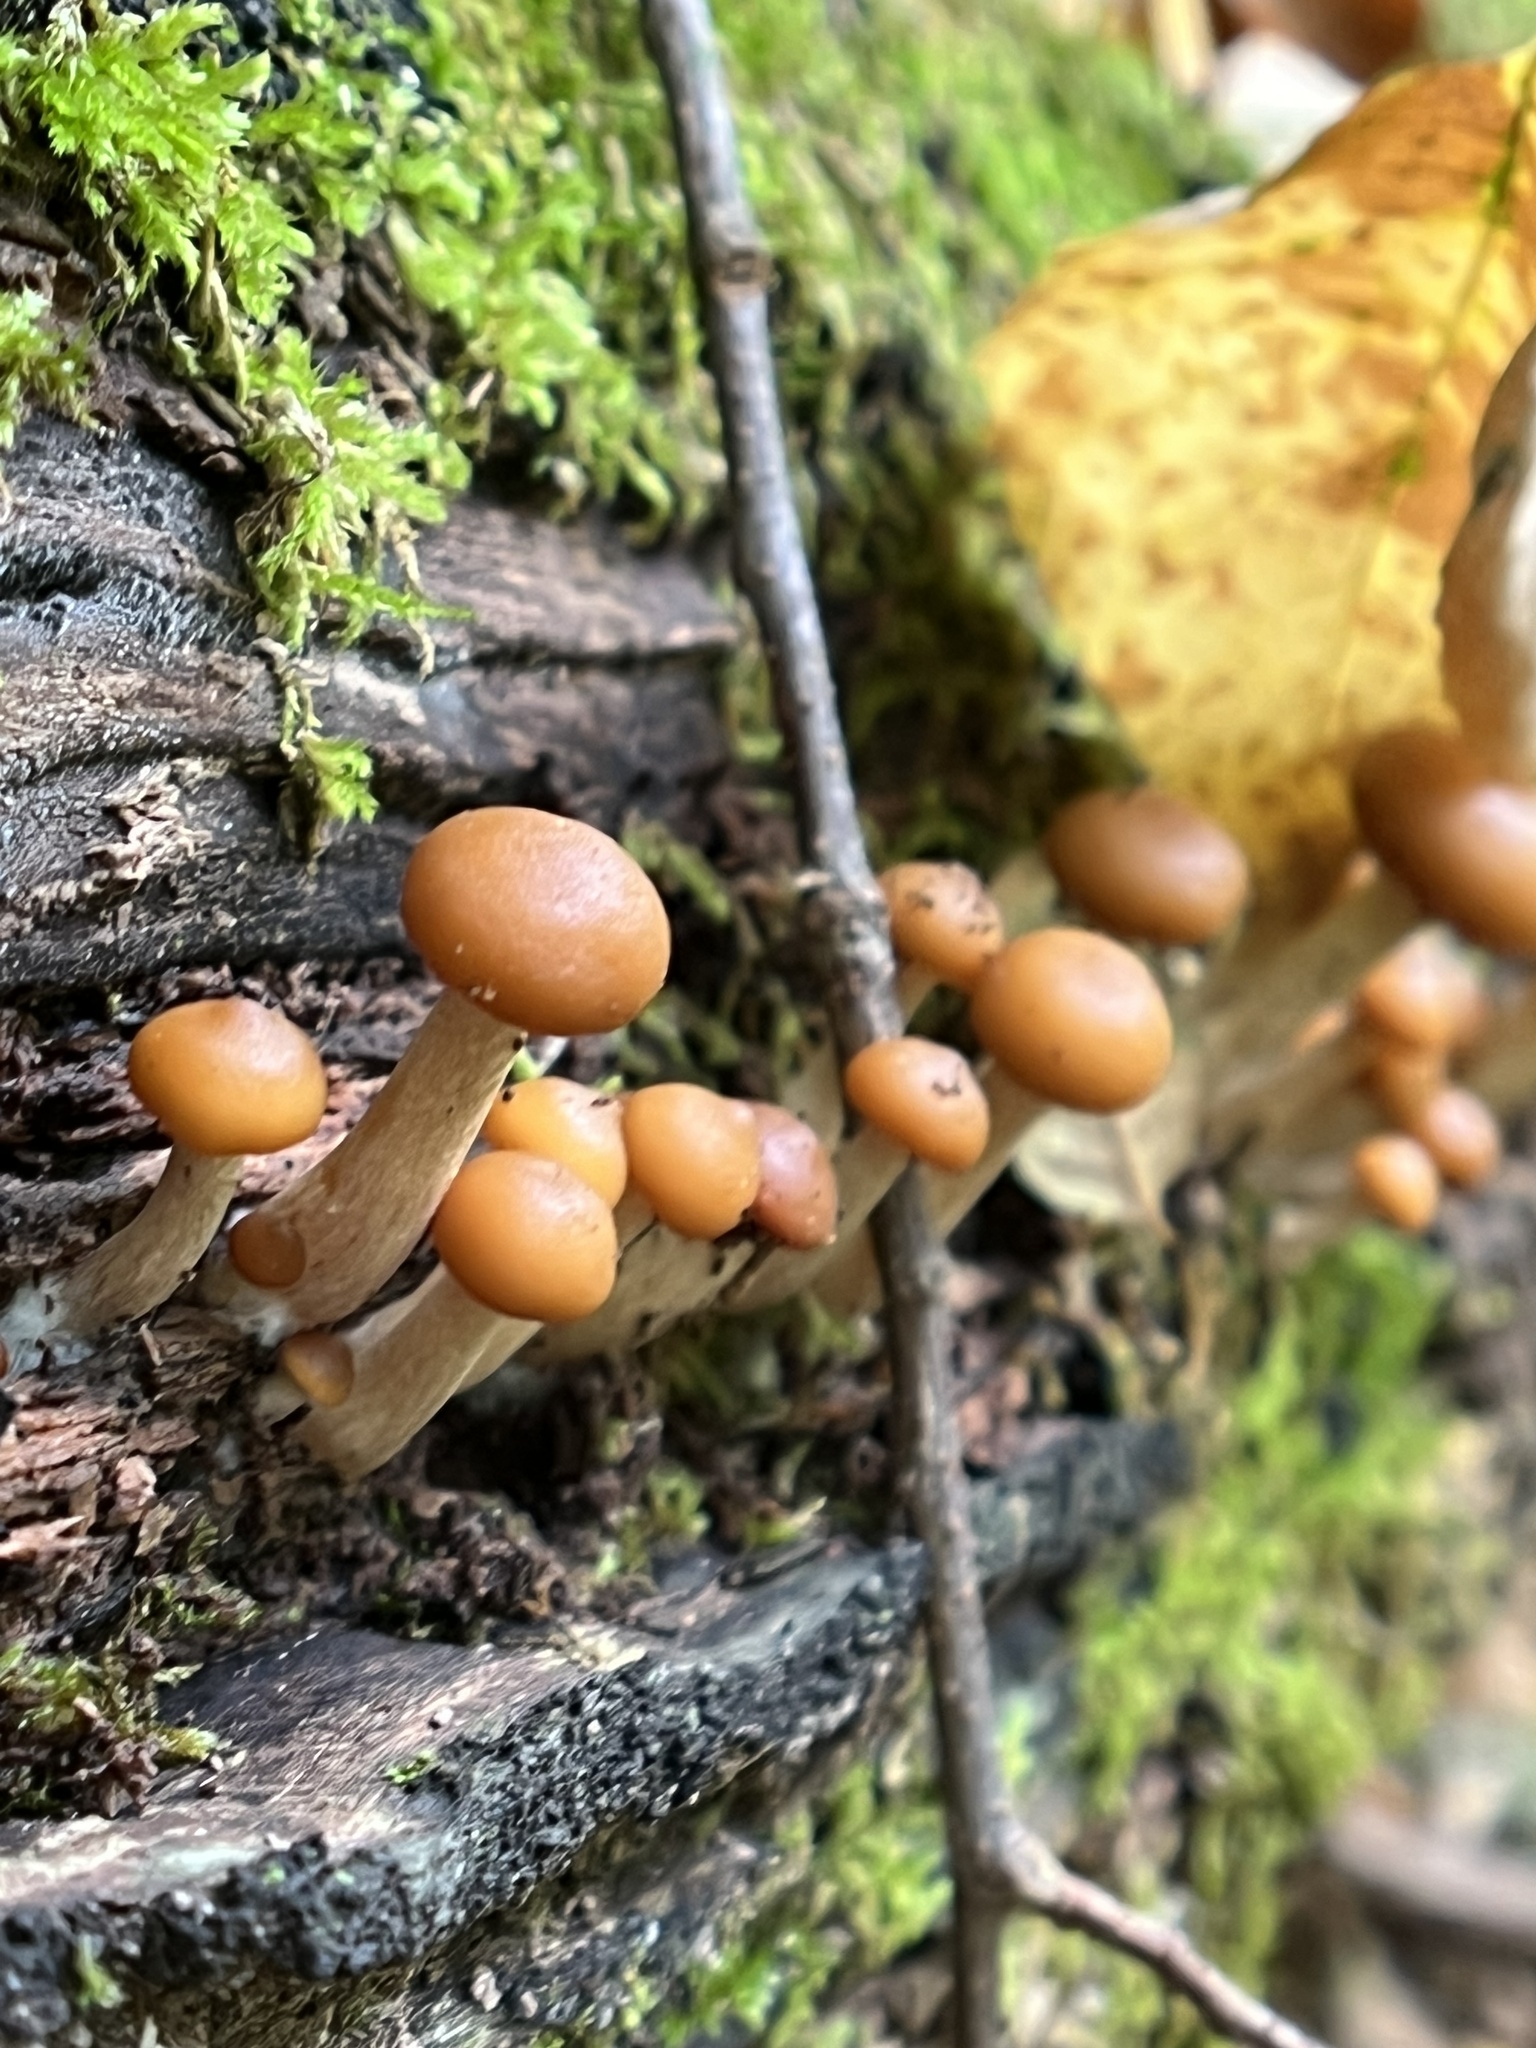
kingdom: Fungi
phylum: Basidiomycota
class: Agaricomycetes
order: Agaricales
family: Hymenogastraceae
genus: Galerina
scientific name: Galerina marginata
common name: Funeral bell
